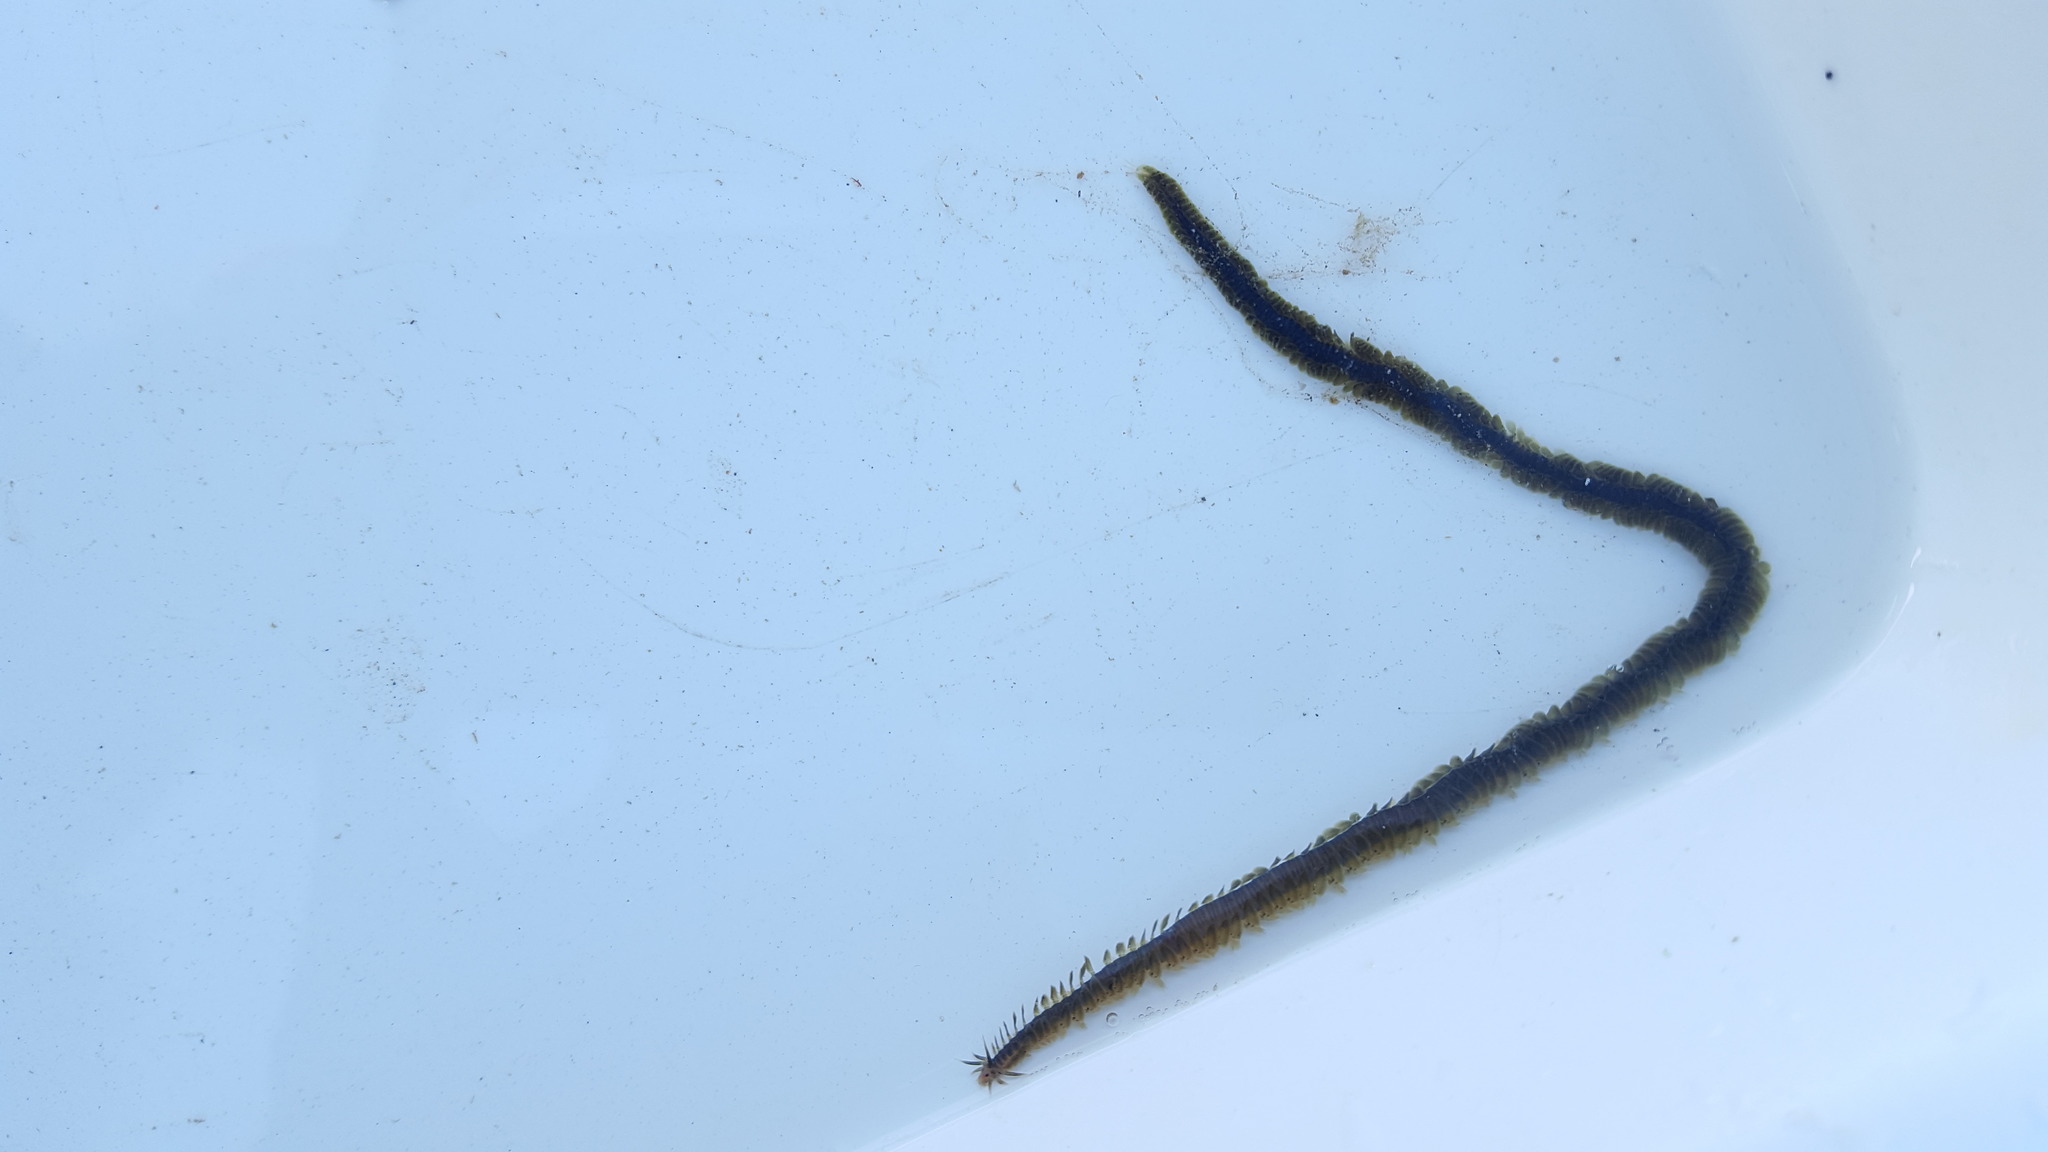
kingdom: Animalia
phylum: Annelida
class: Polychaeta
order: Phyllodocida
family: Phyllodocidae
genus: Phyllodoce
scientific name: Phyllodoce medipapillata
